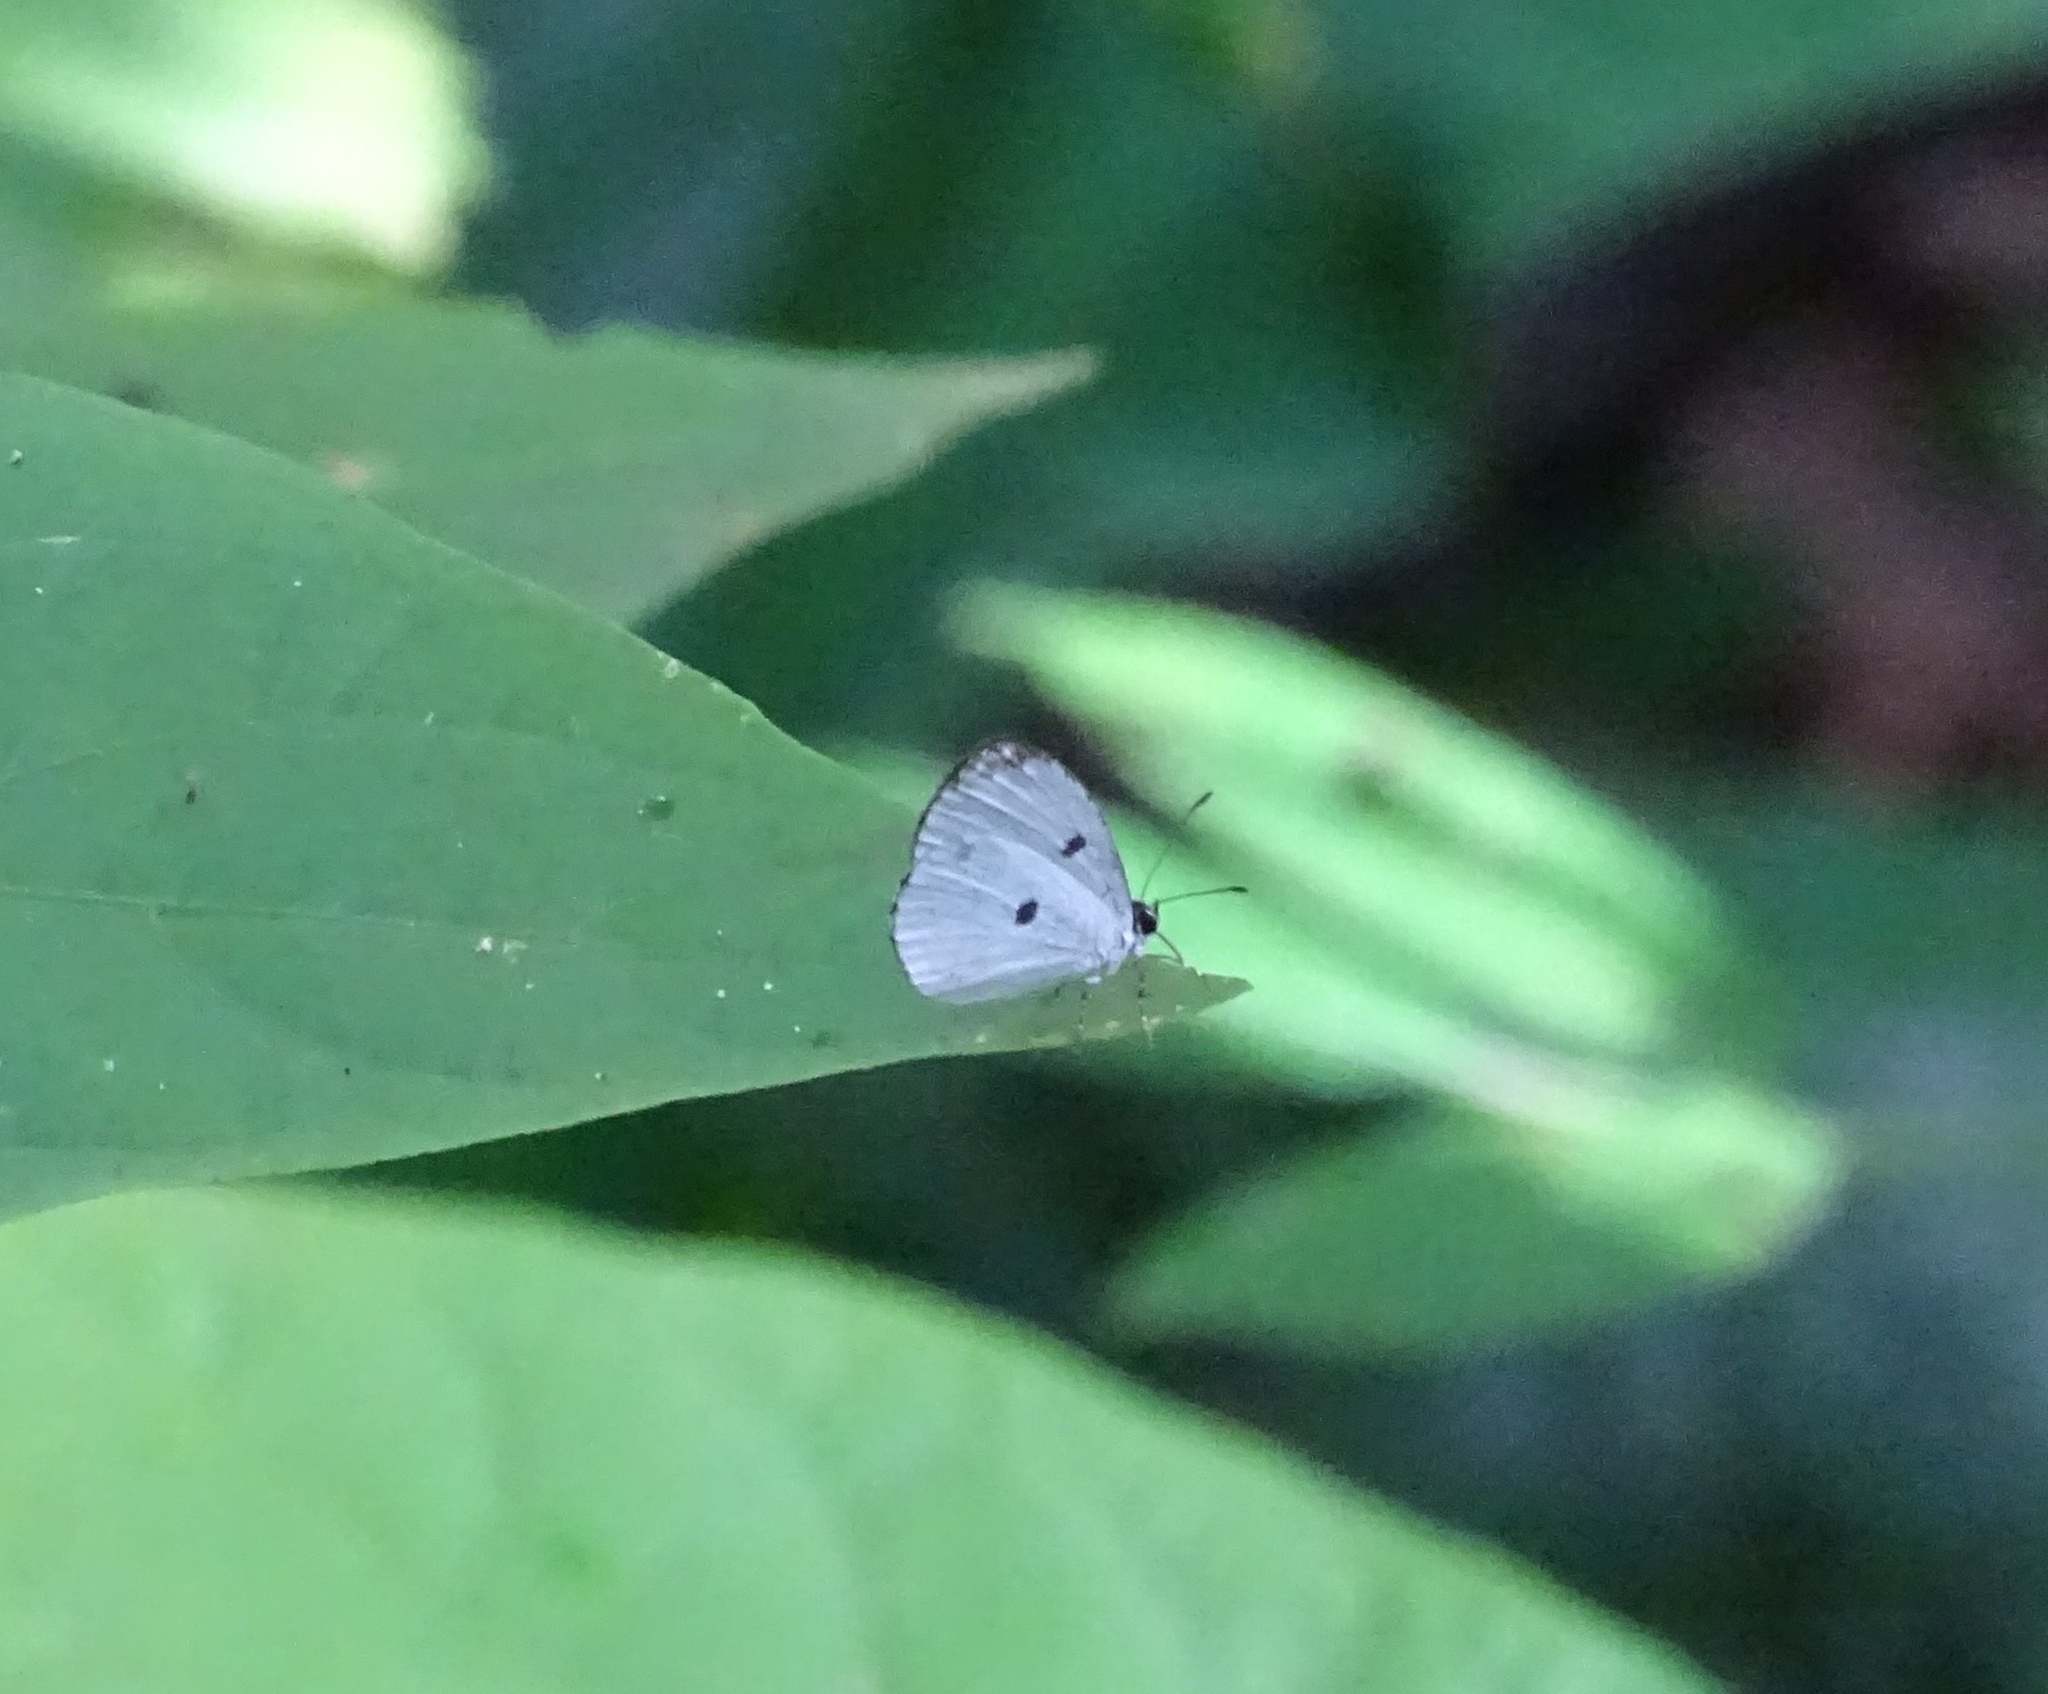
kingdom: Animalia
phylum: Arthropoda
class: Insecta
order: Lepidoptera
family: Lycaenidae
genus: Tetrarhanis
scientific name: Tetrarhanis ilma
